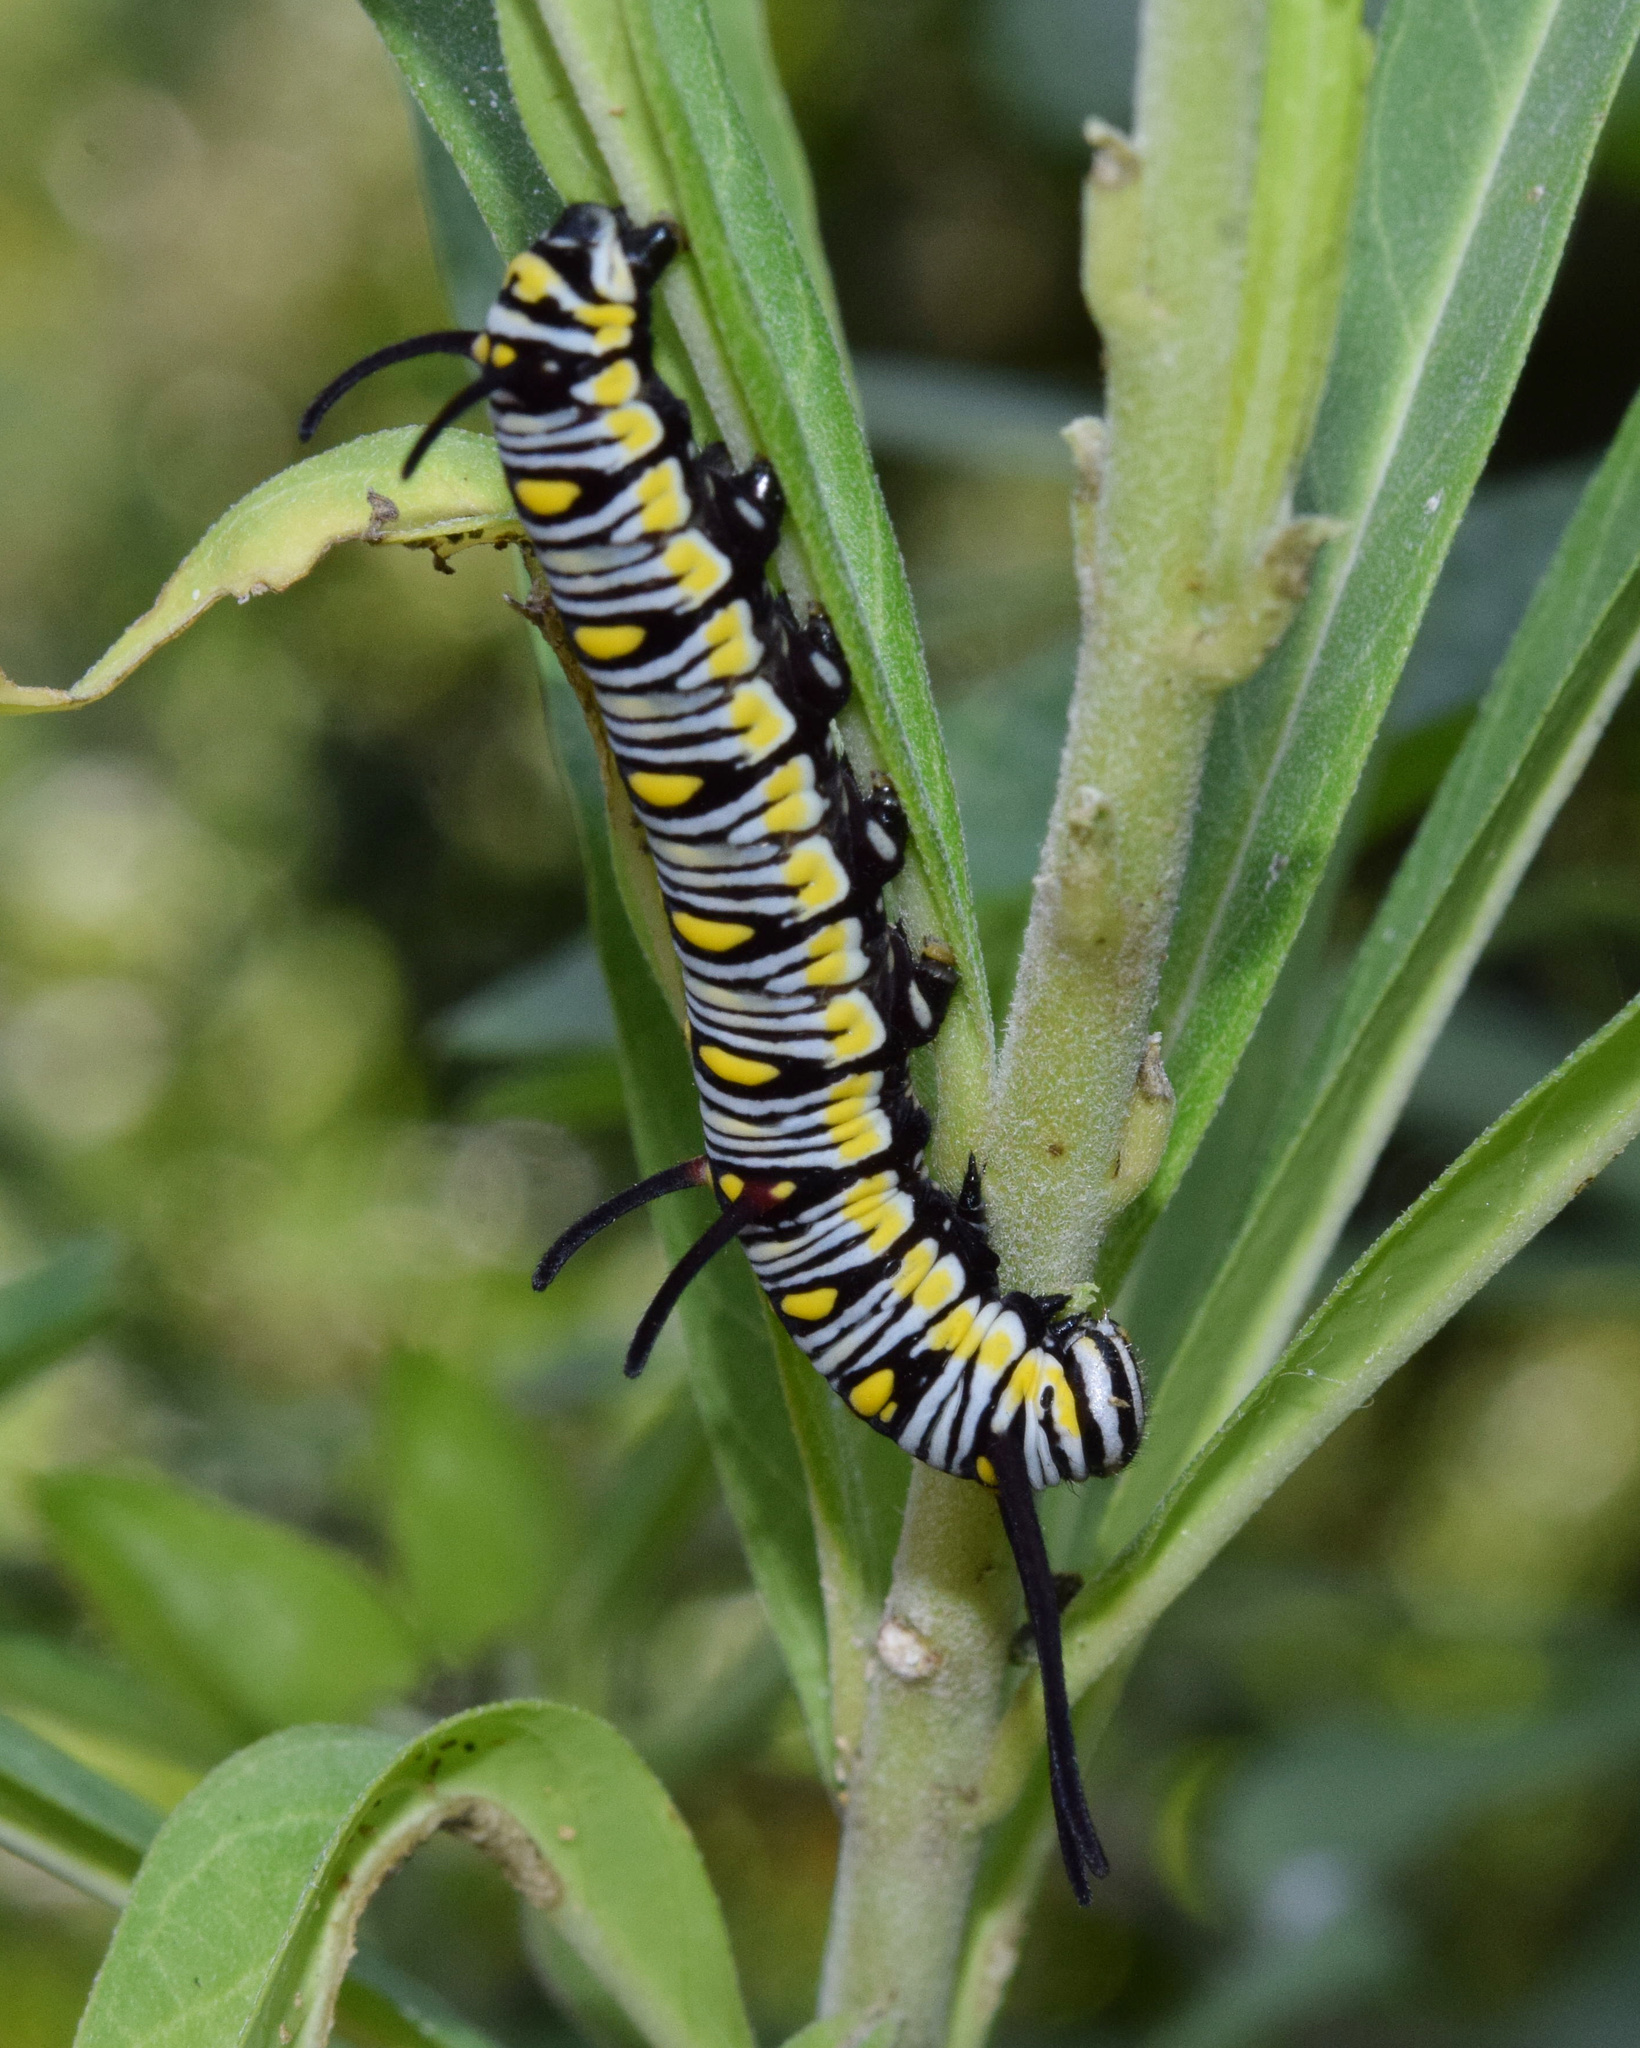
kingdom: Animalia
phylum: Arthropoda
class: Insecta
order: Lepidoptera
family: Nymphalidae
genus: Danaus
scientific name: Danaus chrysippus
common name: Plain tiger
